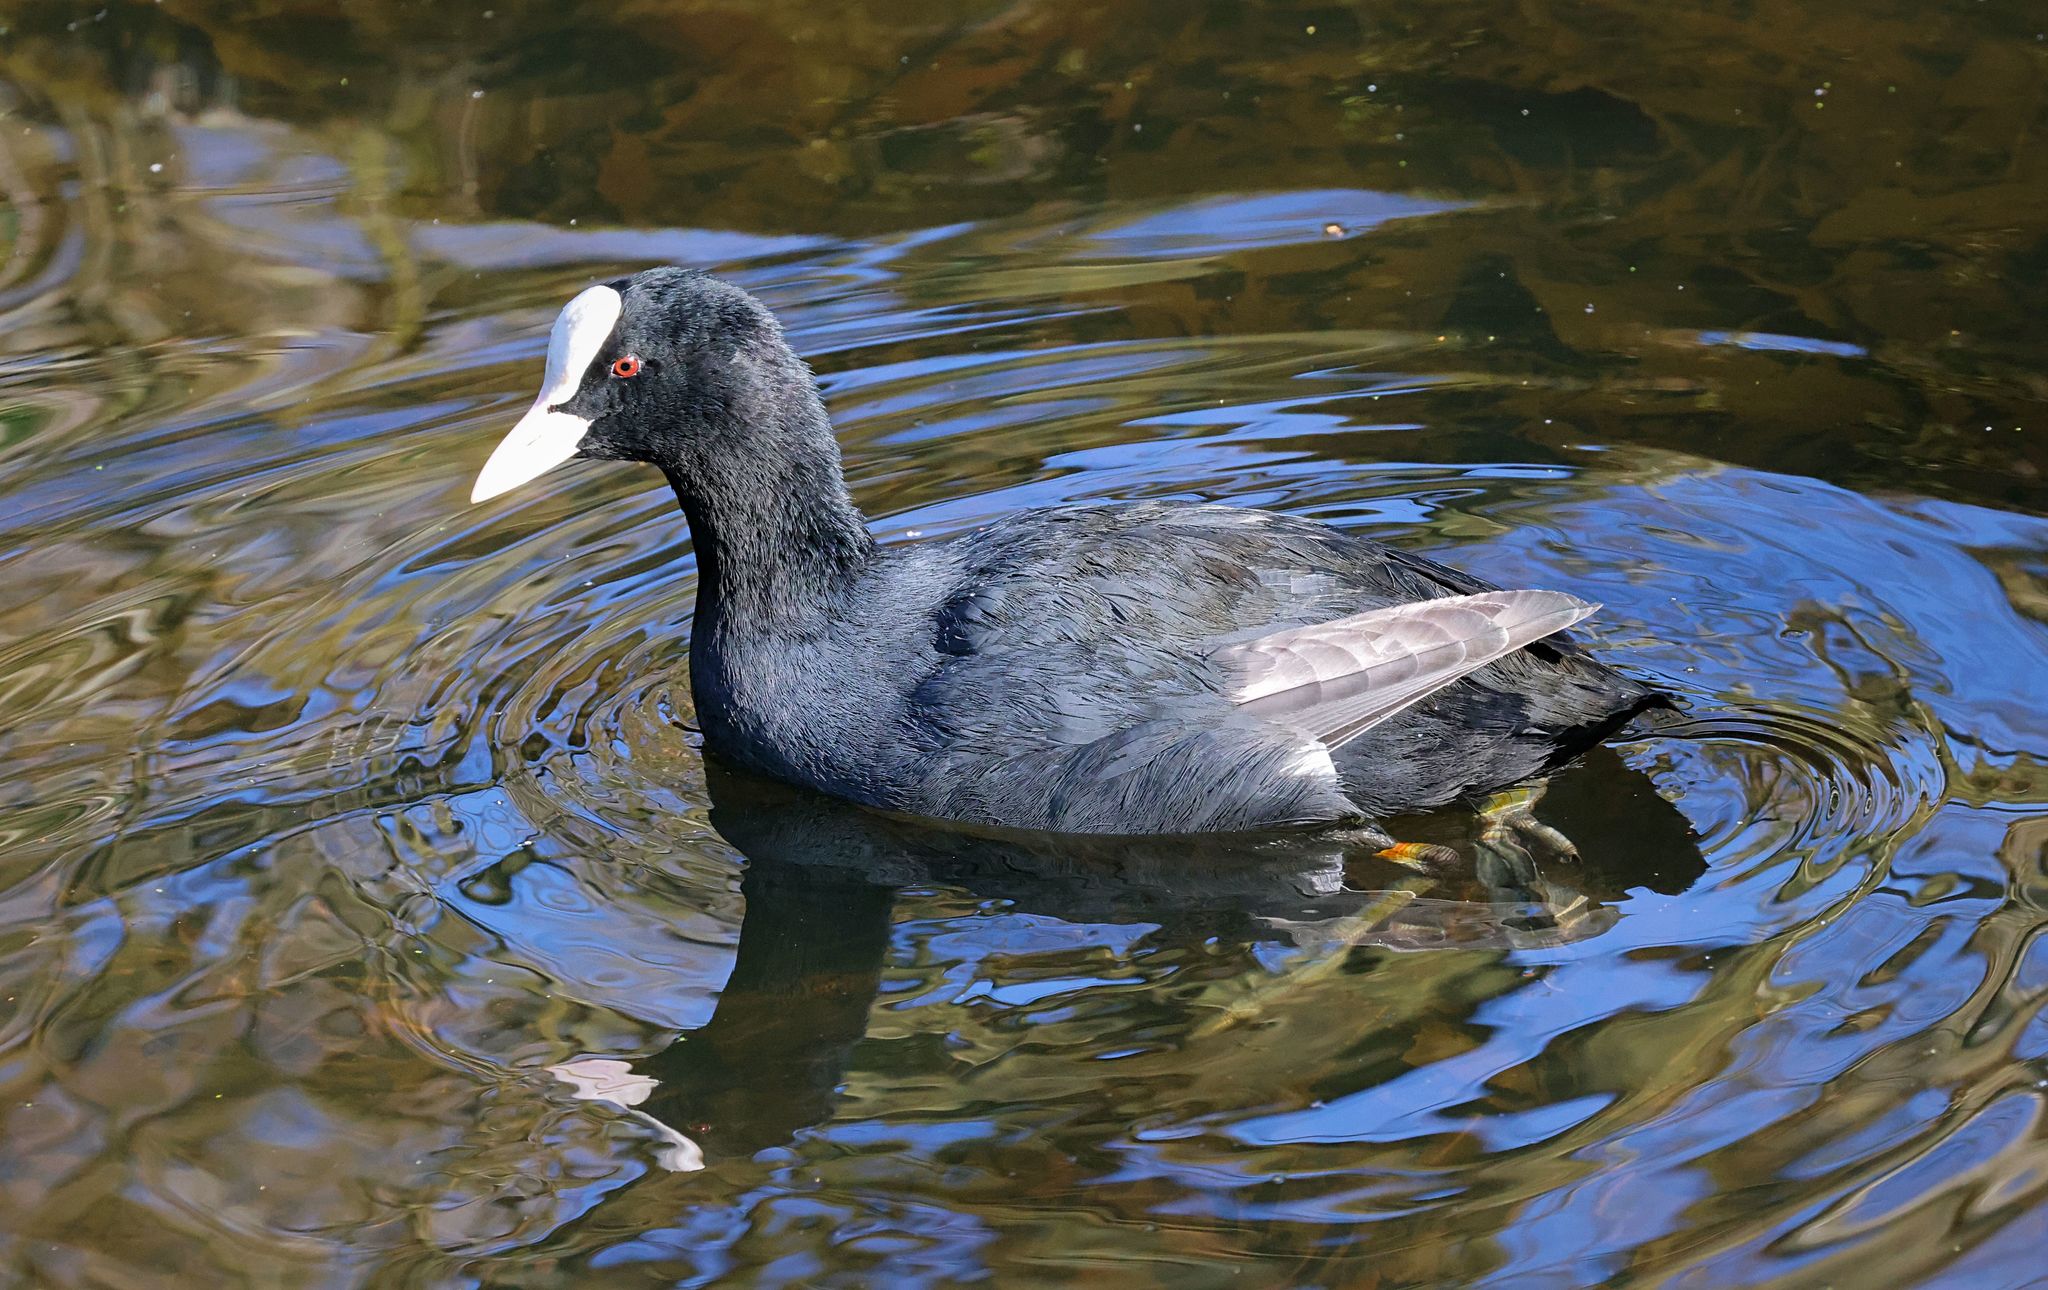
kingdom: Animalia
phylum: Chordata
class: Aves
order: Gruiformes
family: Rallidae
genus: Fulica
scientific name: Fulica atra
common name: Eurasian coot
